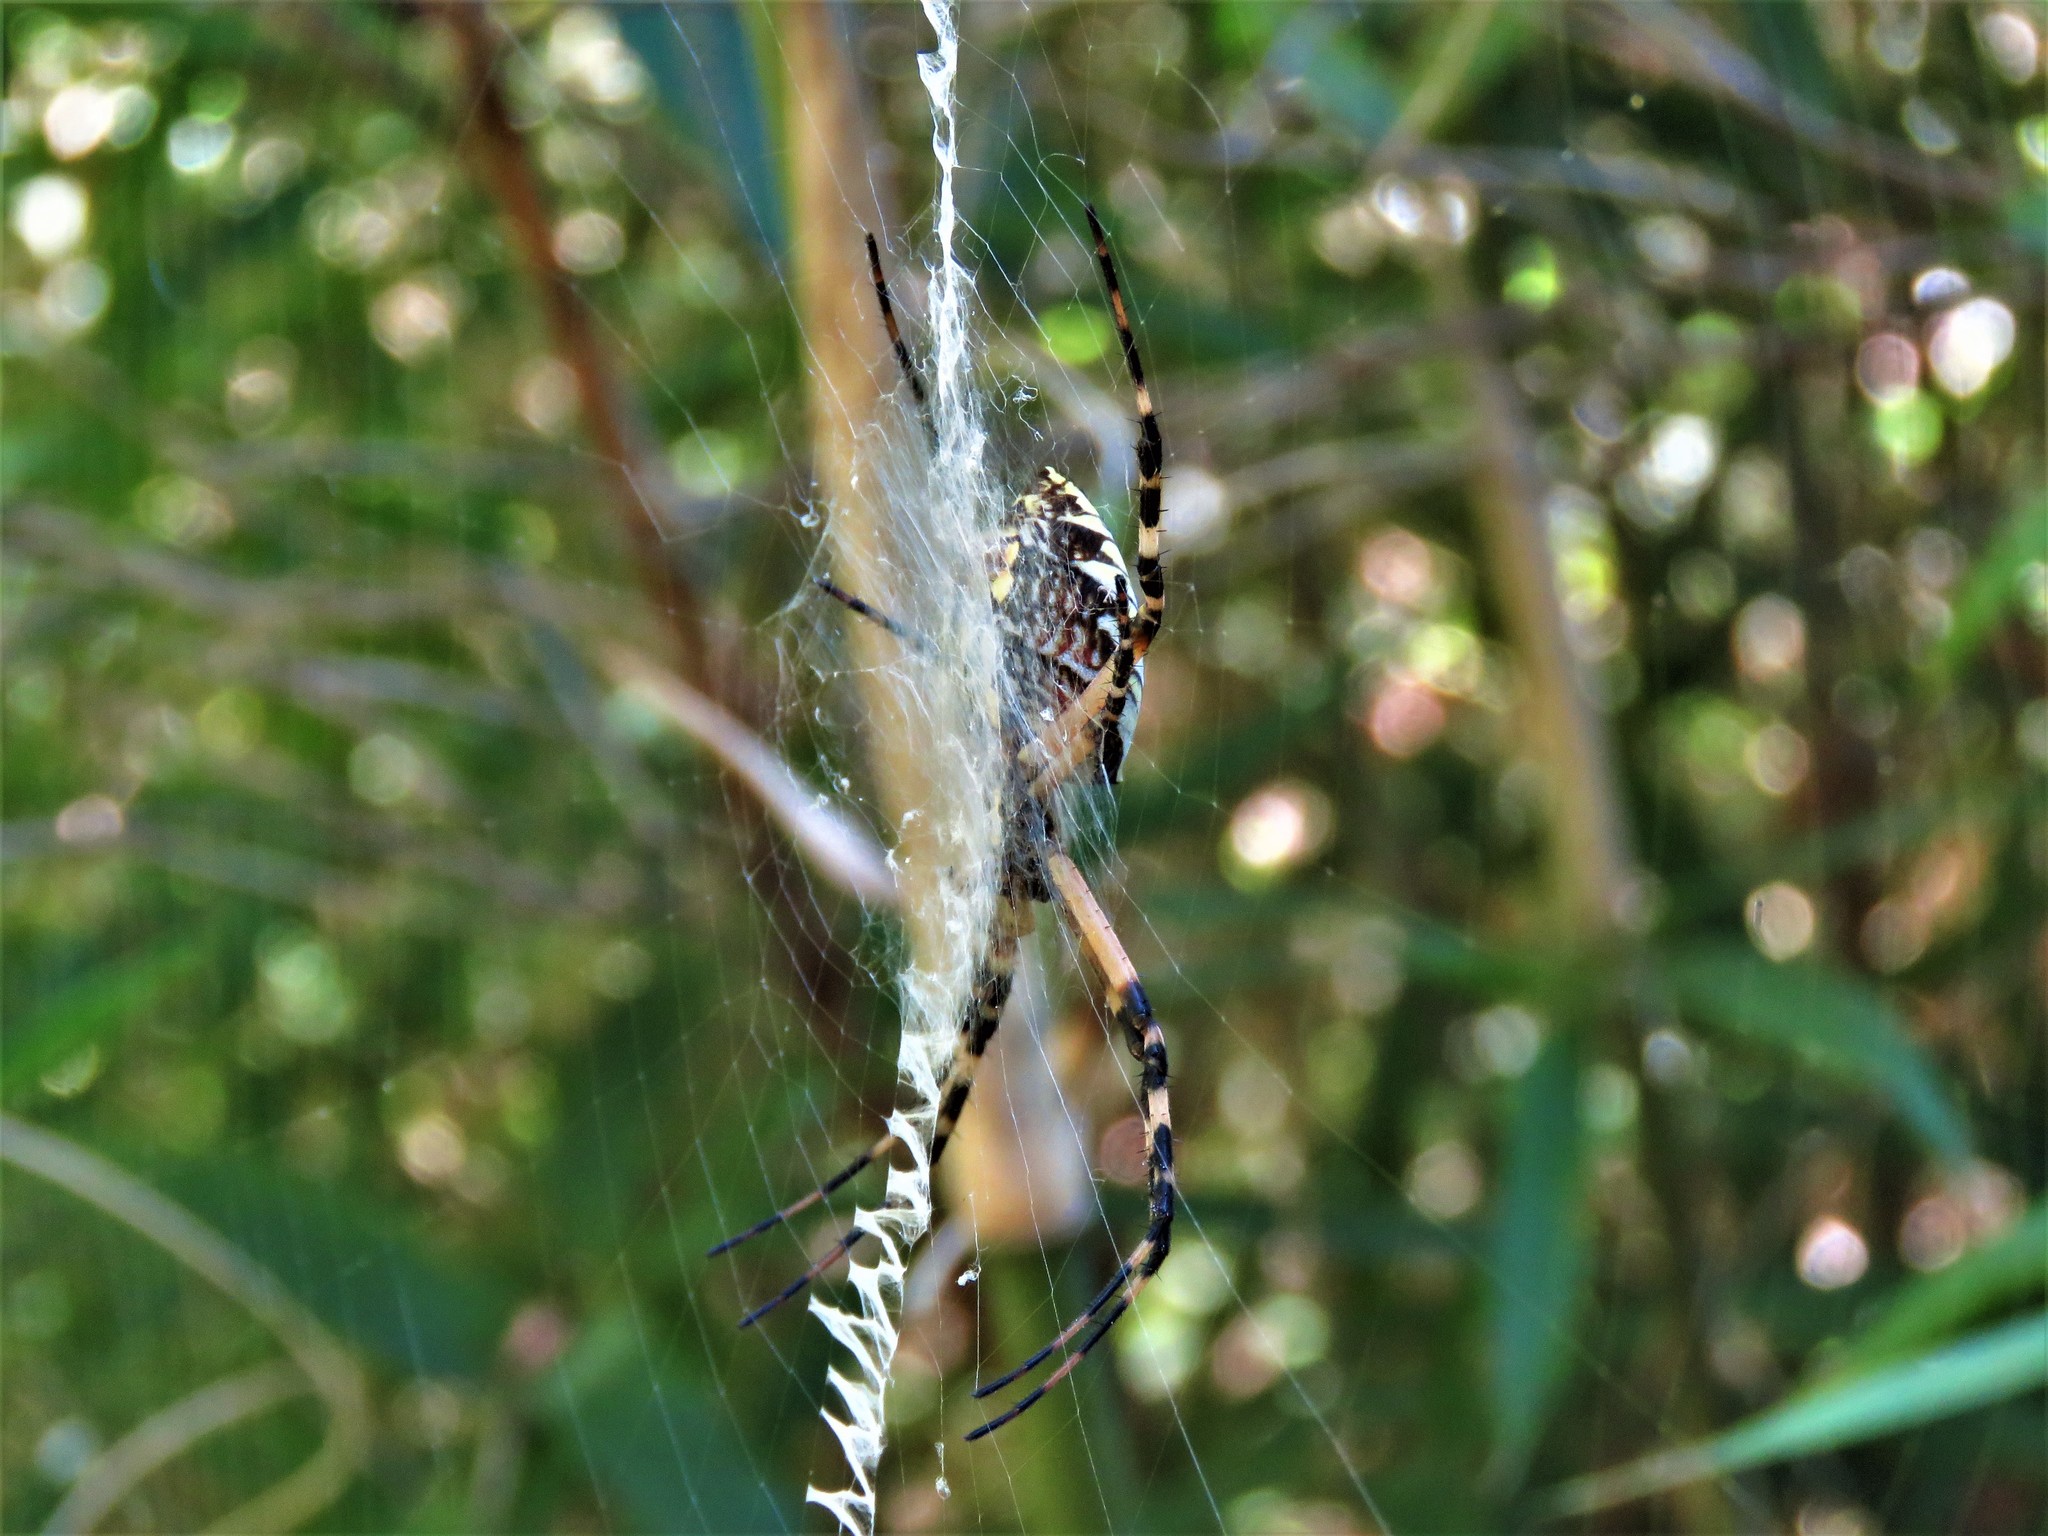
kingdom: Animalia
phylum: Arthropoda
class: Arachnida
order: Araneae
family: Araneidae
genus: Argiope
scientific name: Argiope aurantia
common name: Orb weavers
